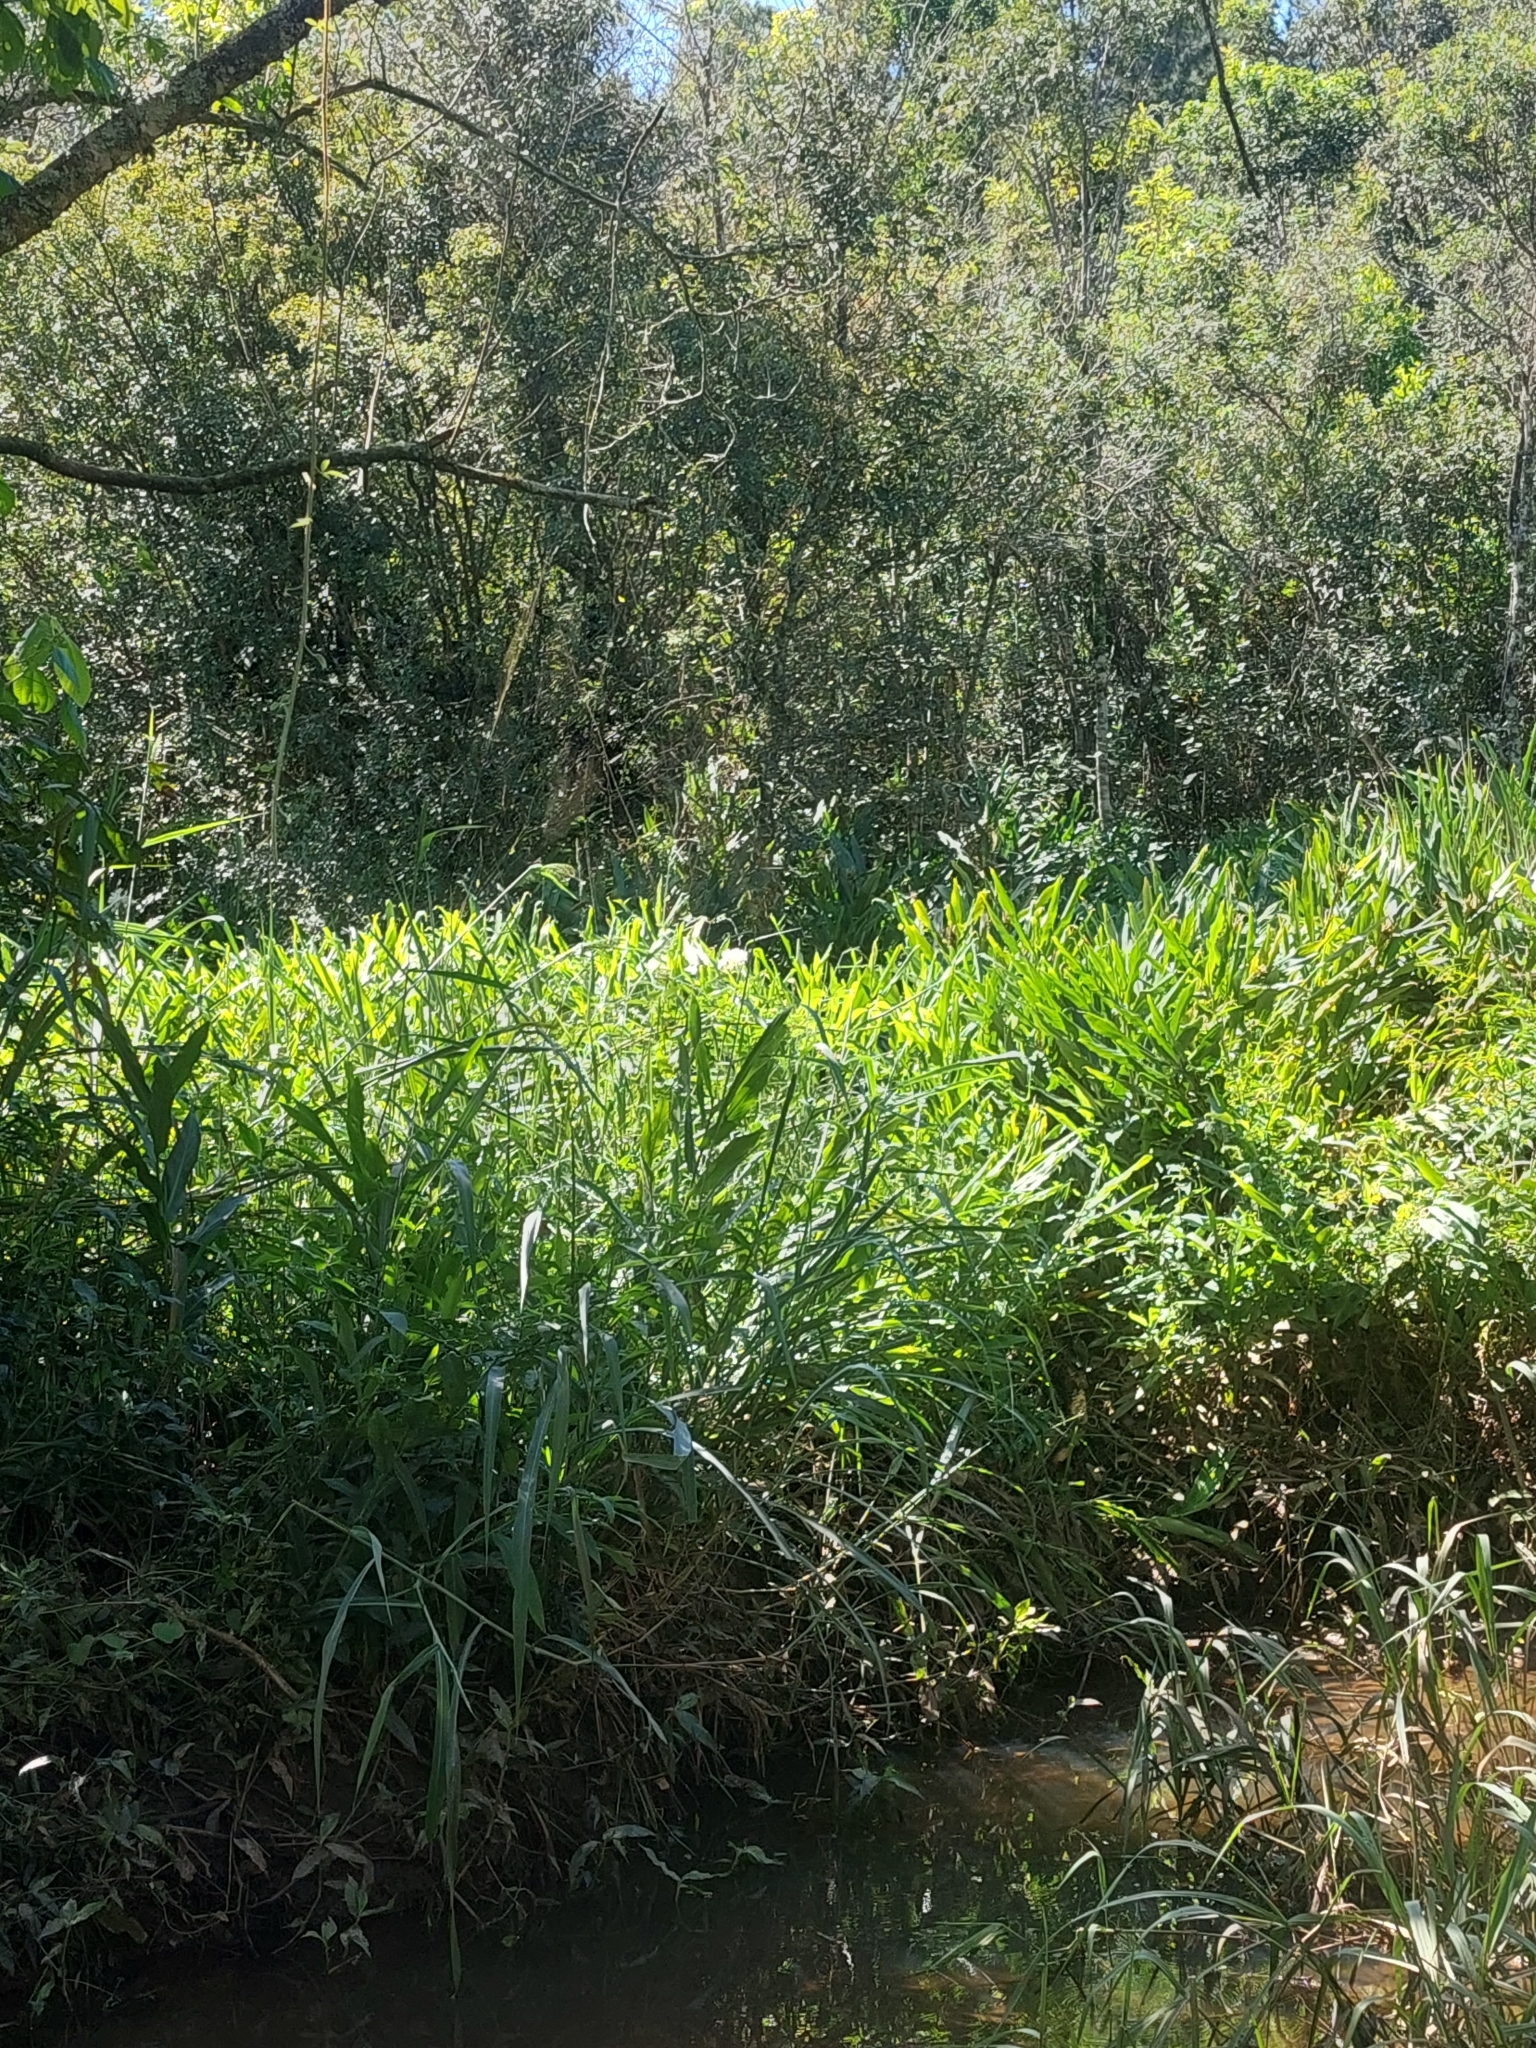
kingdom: Plantae
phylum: Tracheophyta
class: Liliopsida
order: Zingiberales
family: Zingiberaceae
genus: Hedychium
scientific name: Hedychium coronarium
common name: White garland-lily
